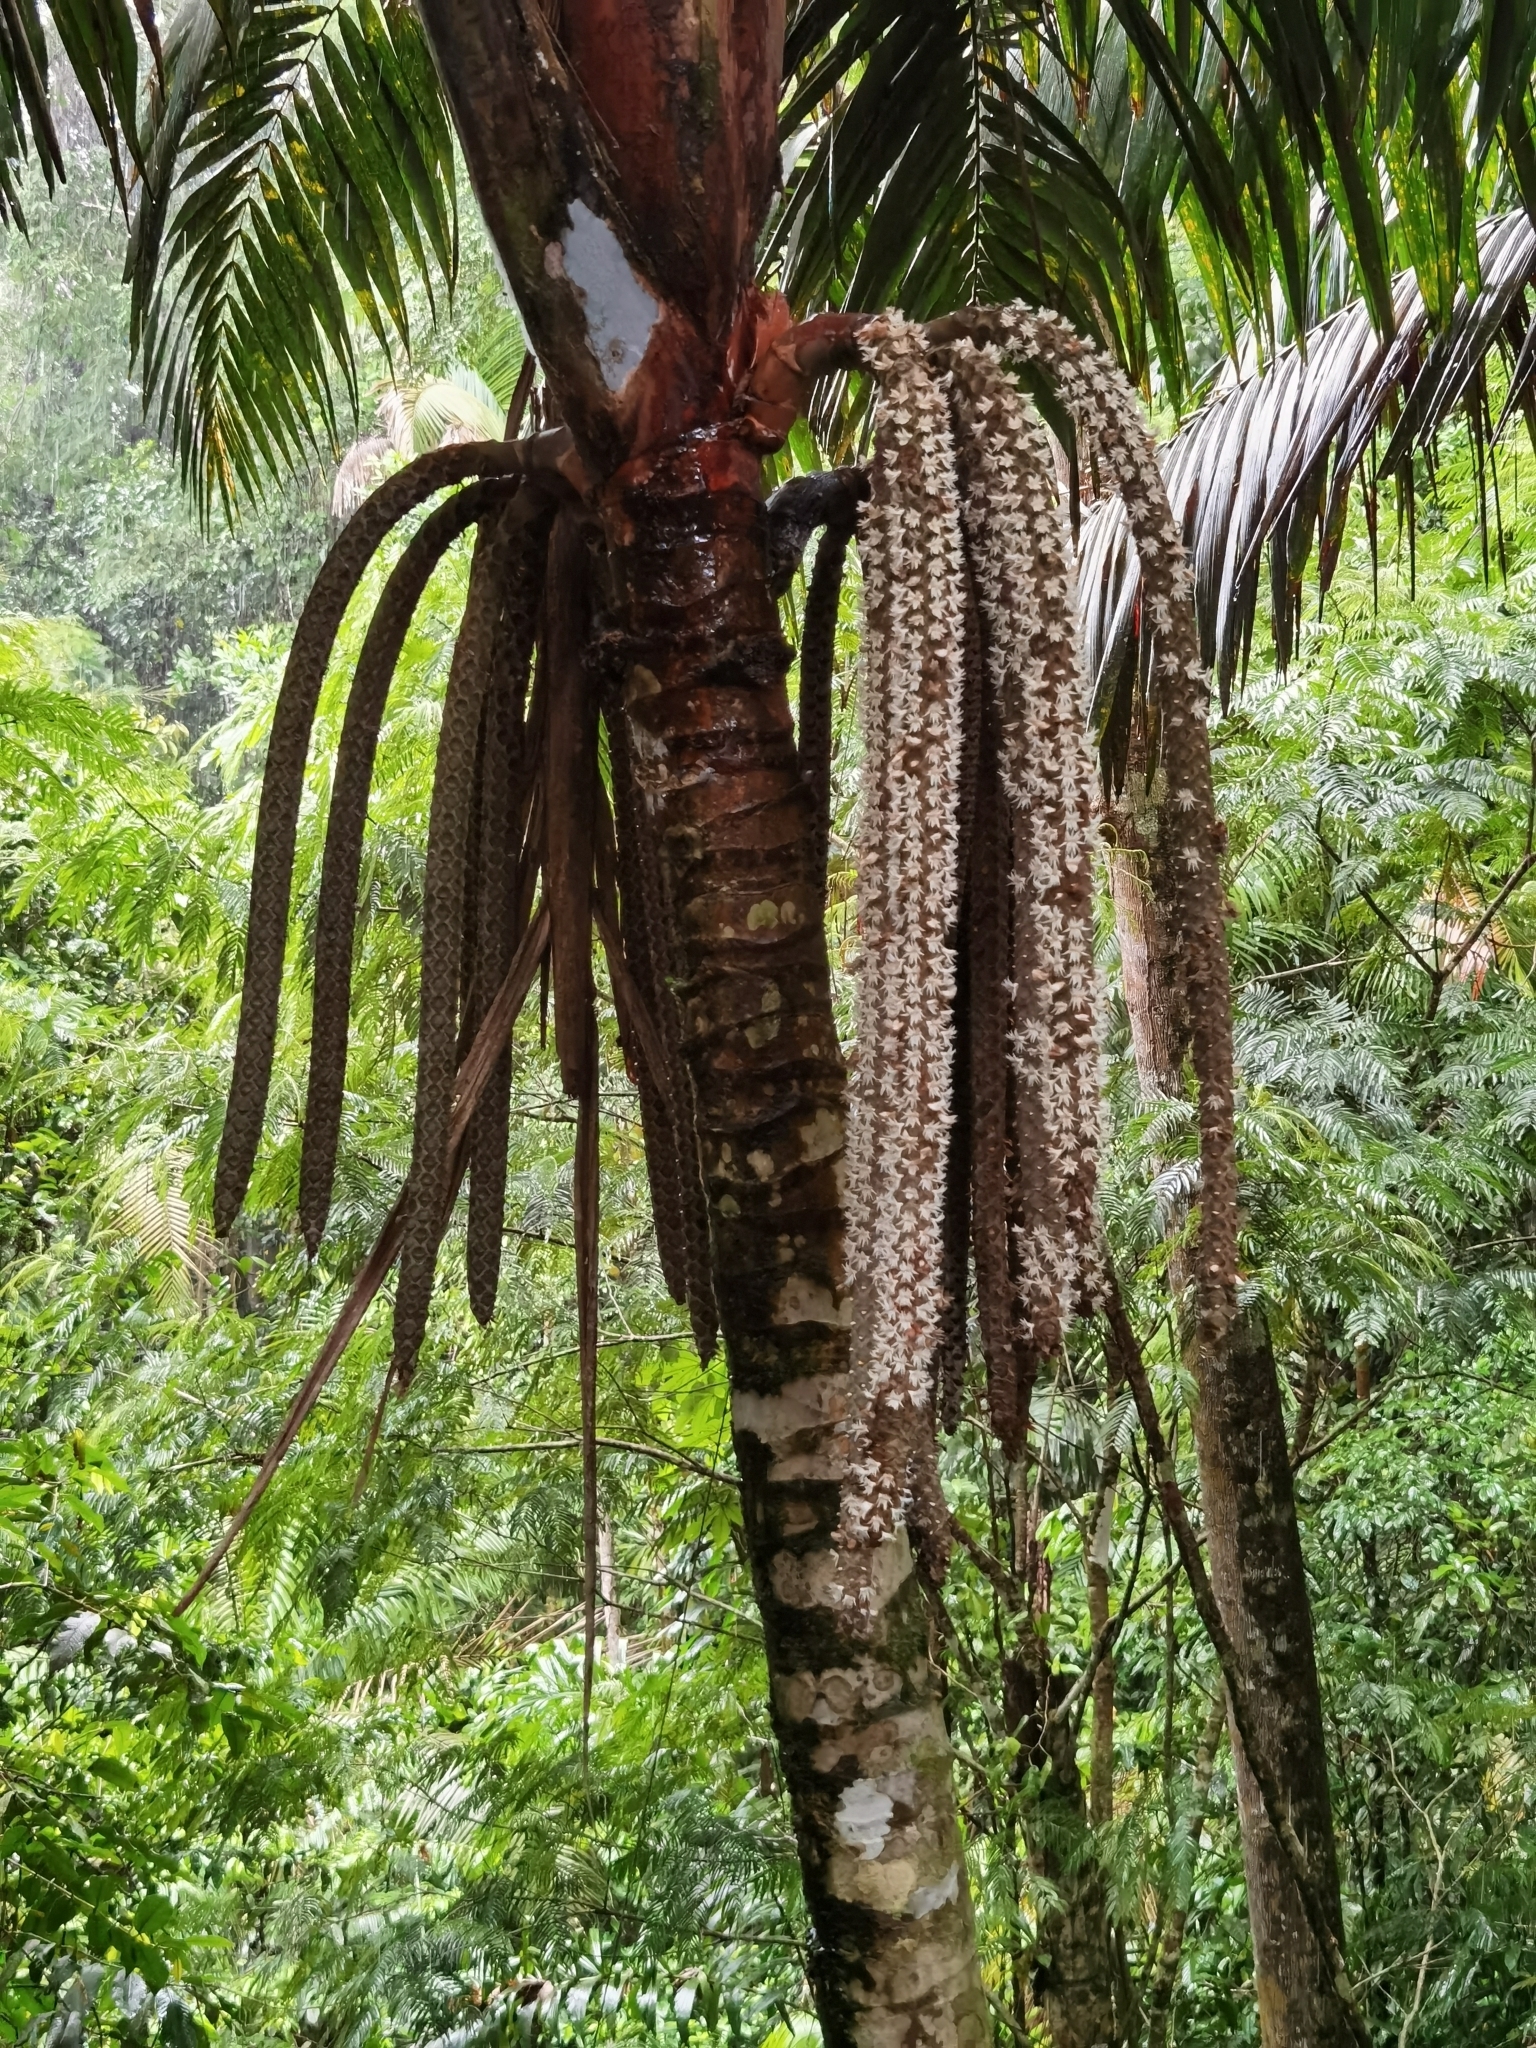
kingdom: Plantae
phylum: Tracheophyta
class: Liliopsida
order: Arecales
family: Arecaceae
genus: Welfia
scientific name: Welfia regia
